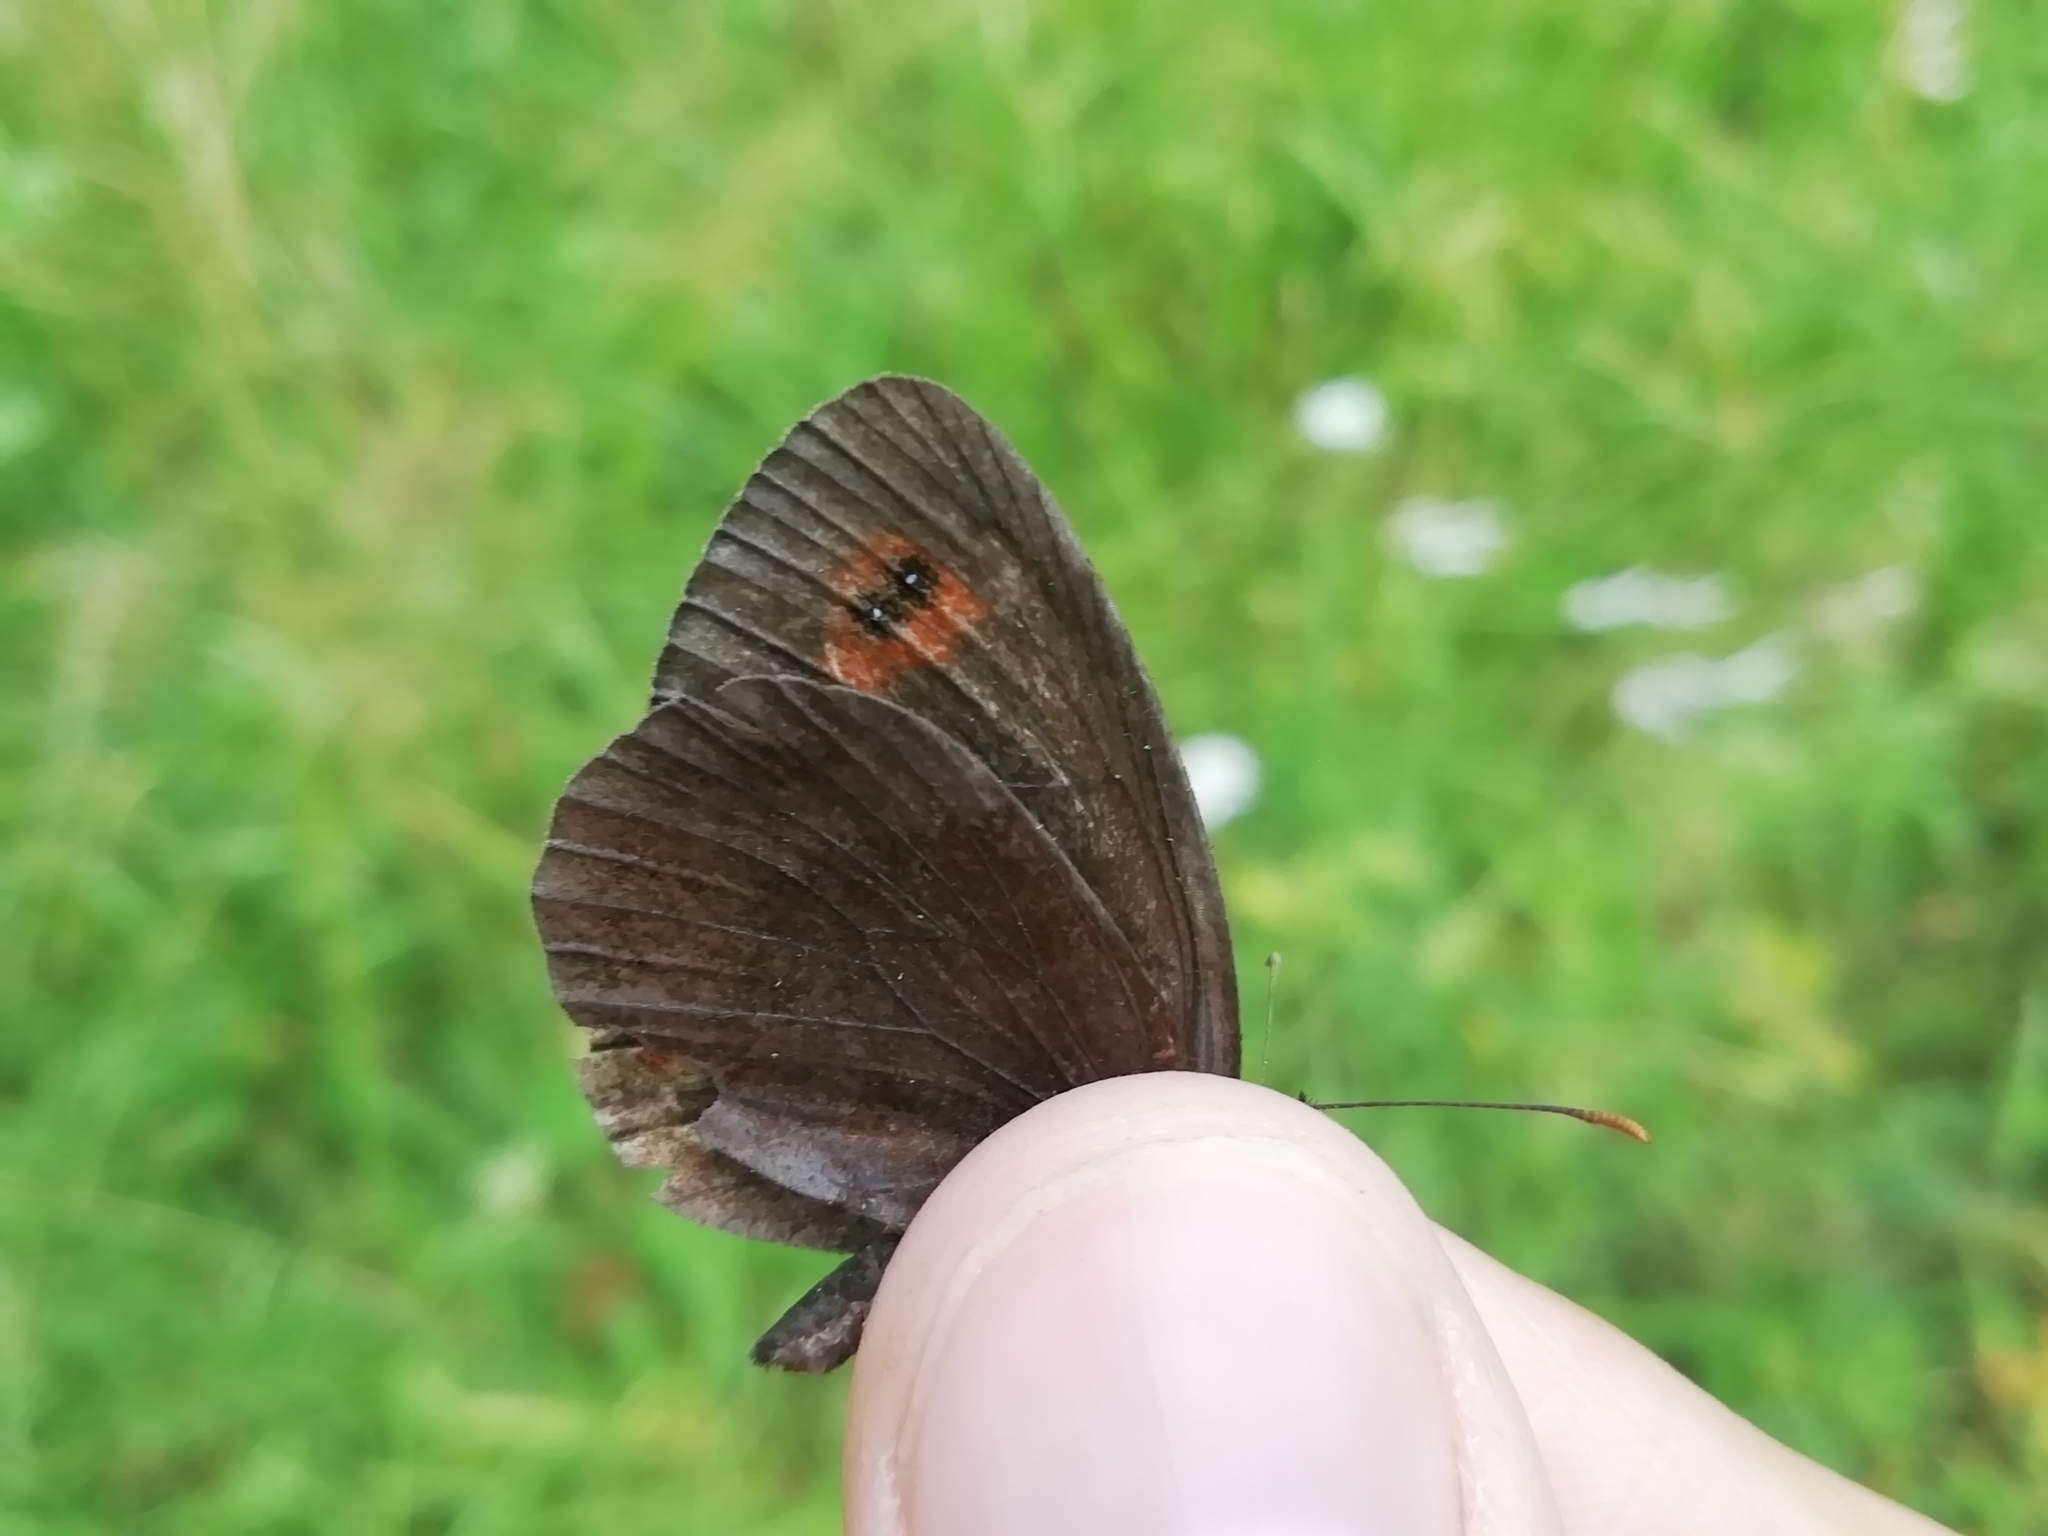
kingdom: Animalia
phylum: Arthropoda
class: Insecta
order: Lepidoptera
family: Nymphalidae
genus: Erebia
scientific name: Erebia aethiops
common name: Scotch argus
